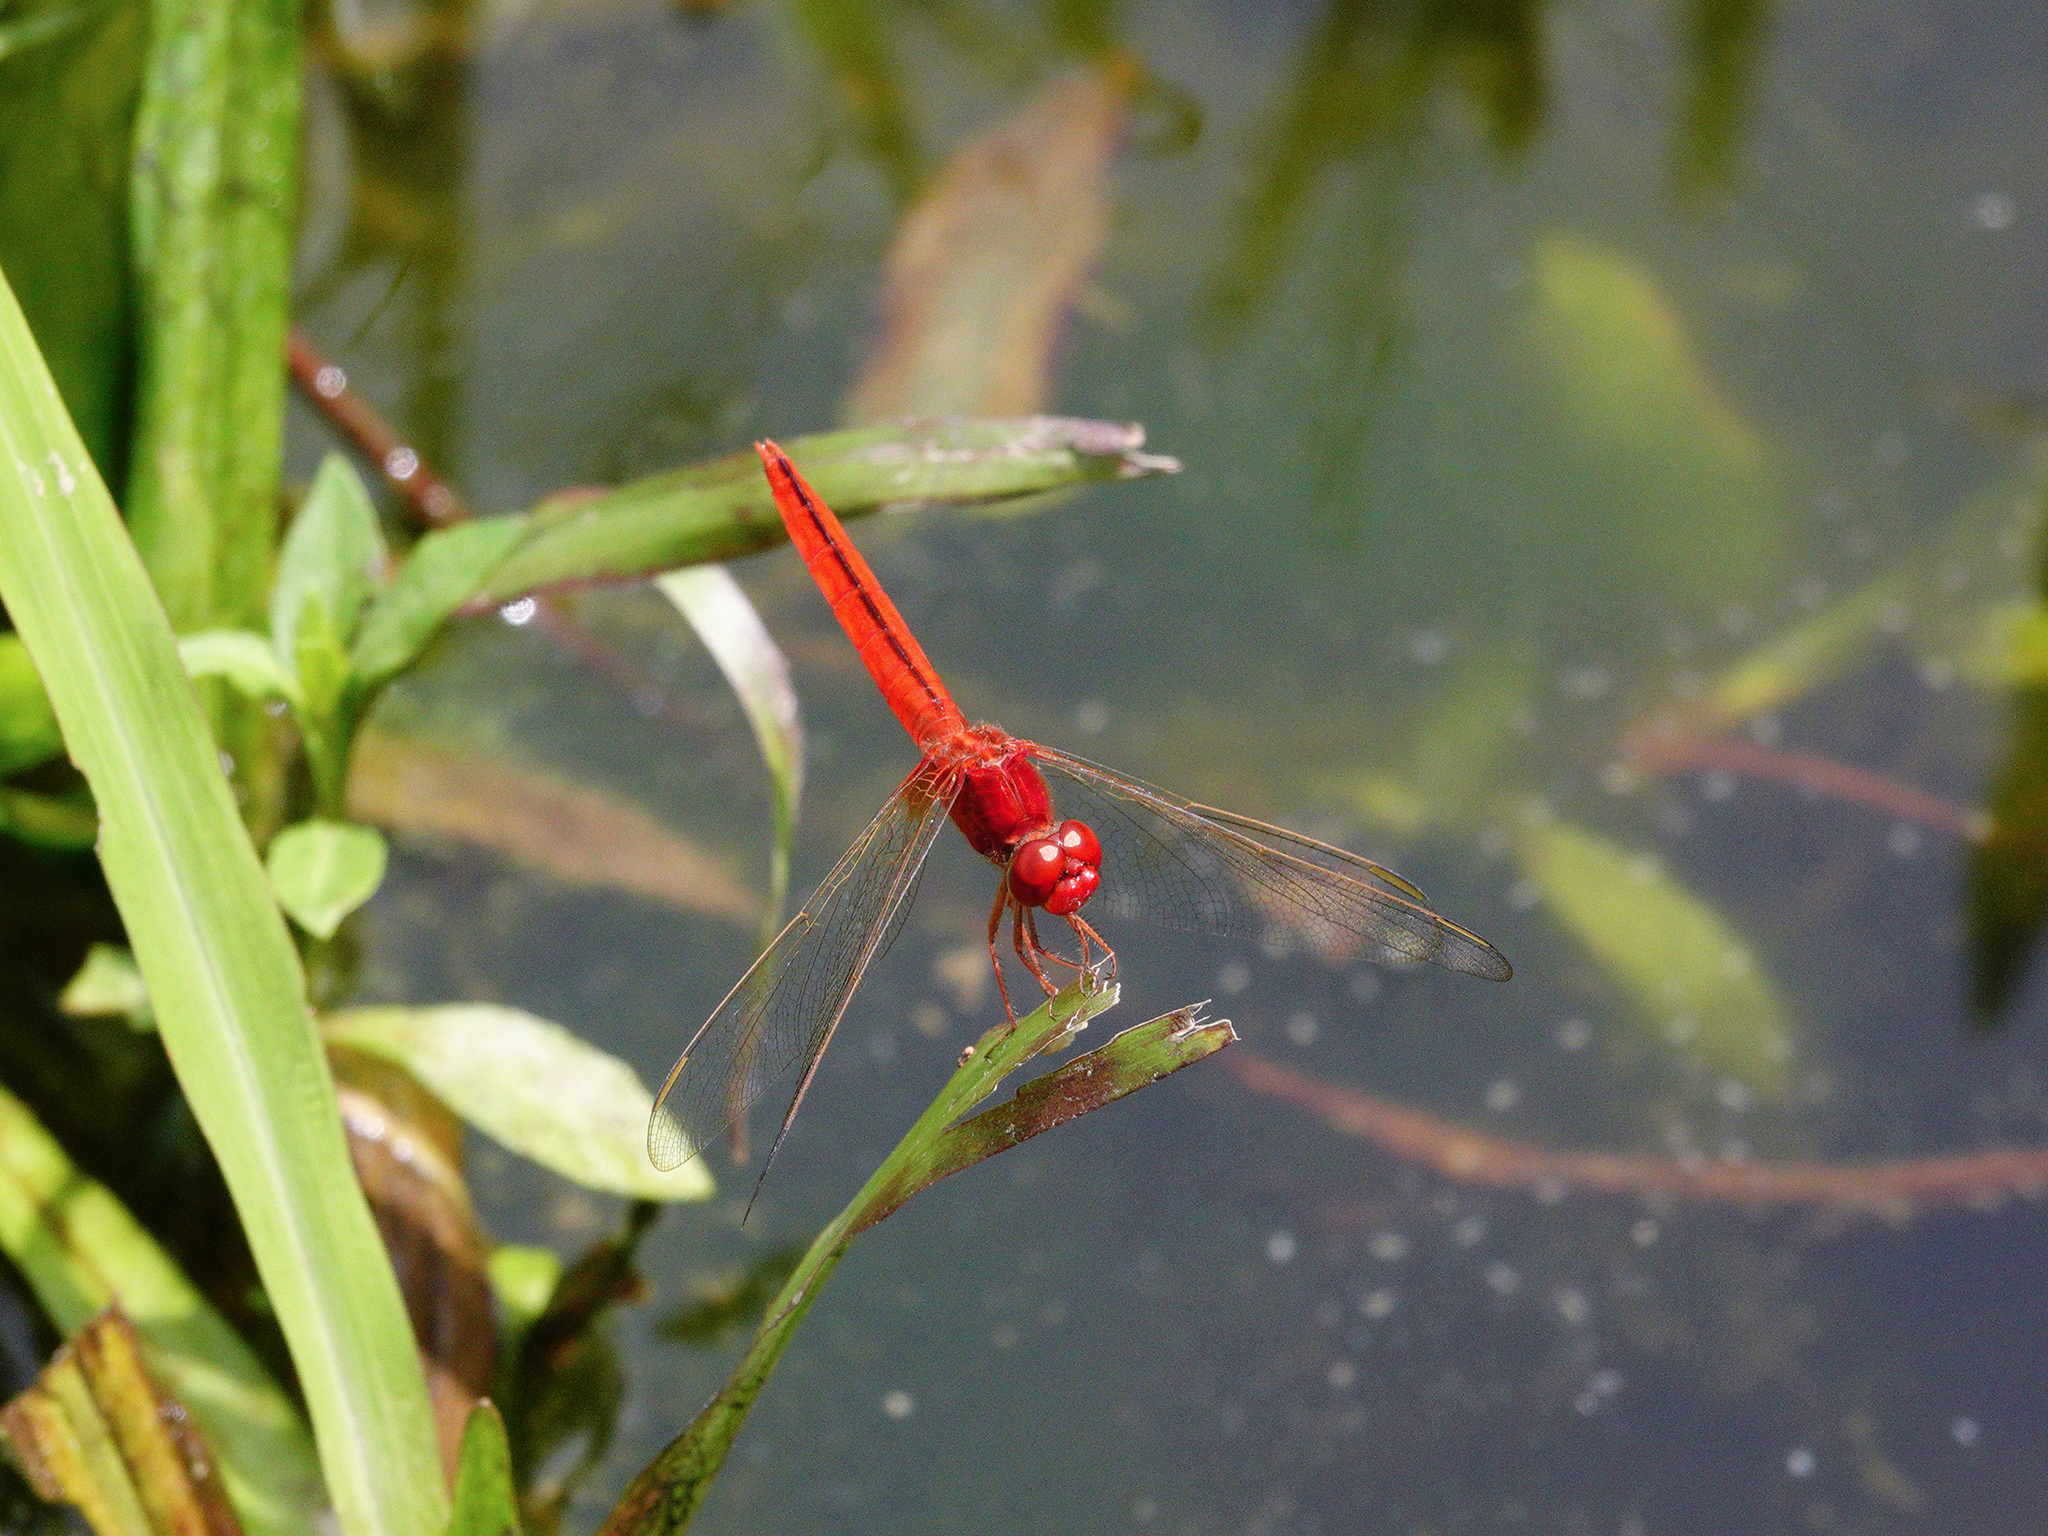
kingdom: Animalia
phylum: Arthropoda
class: Insecta
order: Odonata
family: Libellulidae
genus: Crocothemis
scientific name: Crocothemis servilia
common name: Scarlet skimmer
